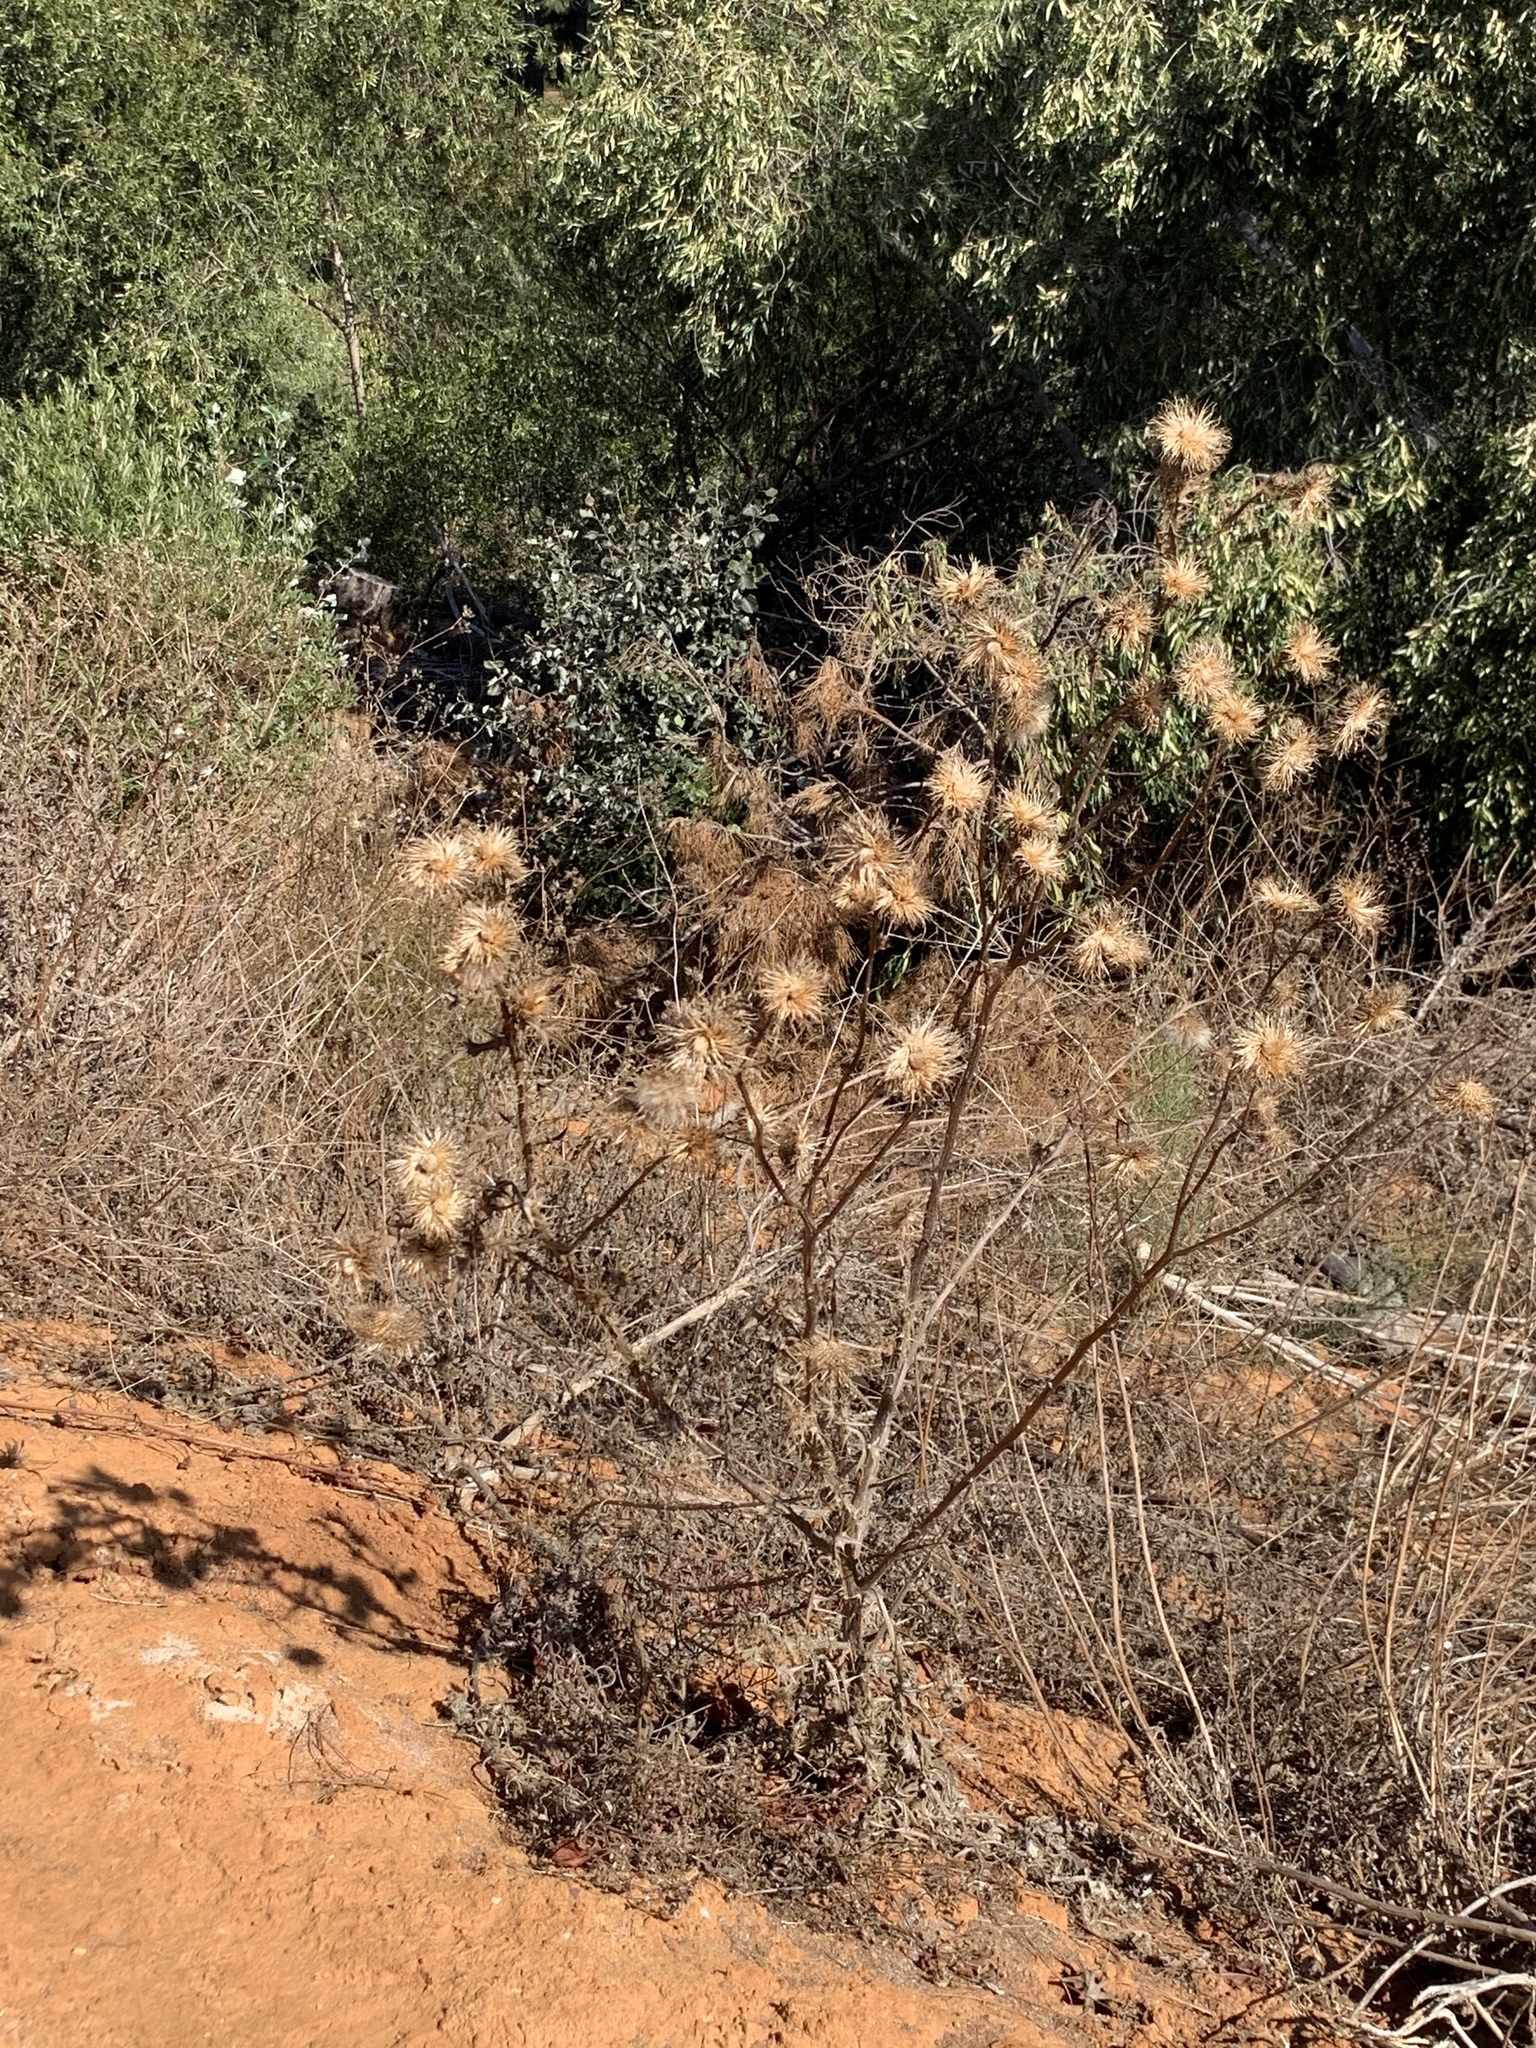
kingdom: Plantae
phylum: Tracheophyta
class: Magnoliopsida
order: Asterales
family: Asteraceae
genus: Cirsium
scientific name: Cirsium vulgare
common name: Bull thistle
